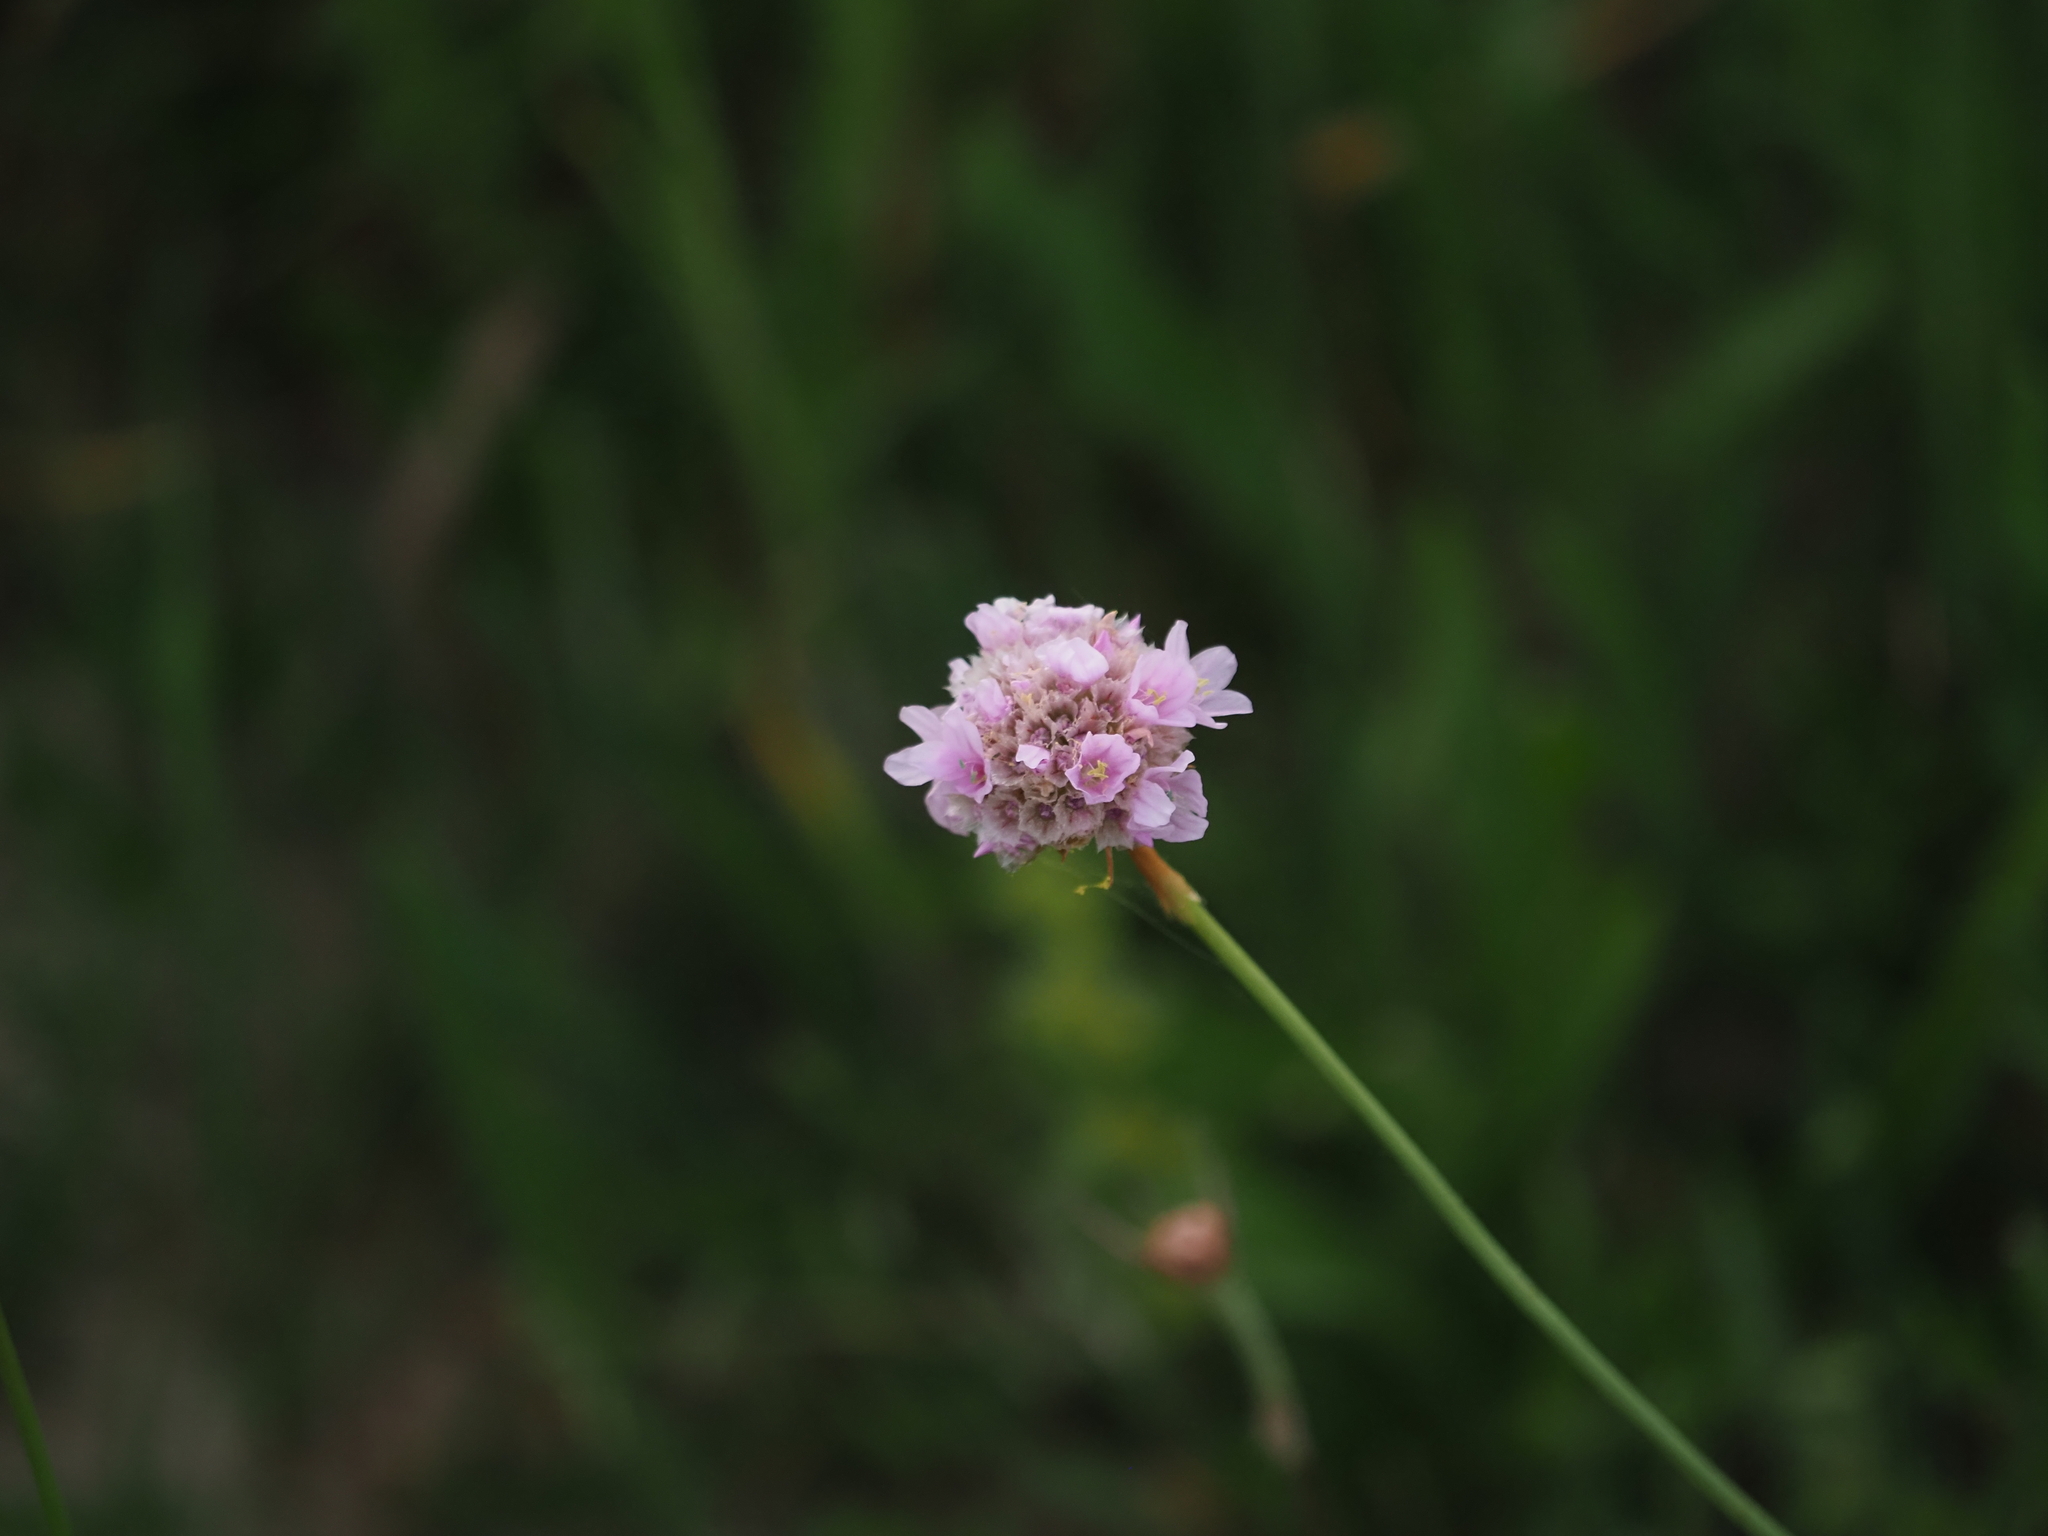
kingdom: Plantae
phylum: Tracheophyta
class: Magnoliopsida
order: Caryophyllales
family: Plumbaginaceae
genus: Armeria
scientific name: Armeria maritima
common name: Thrift
